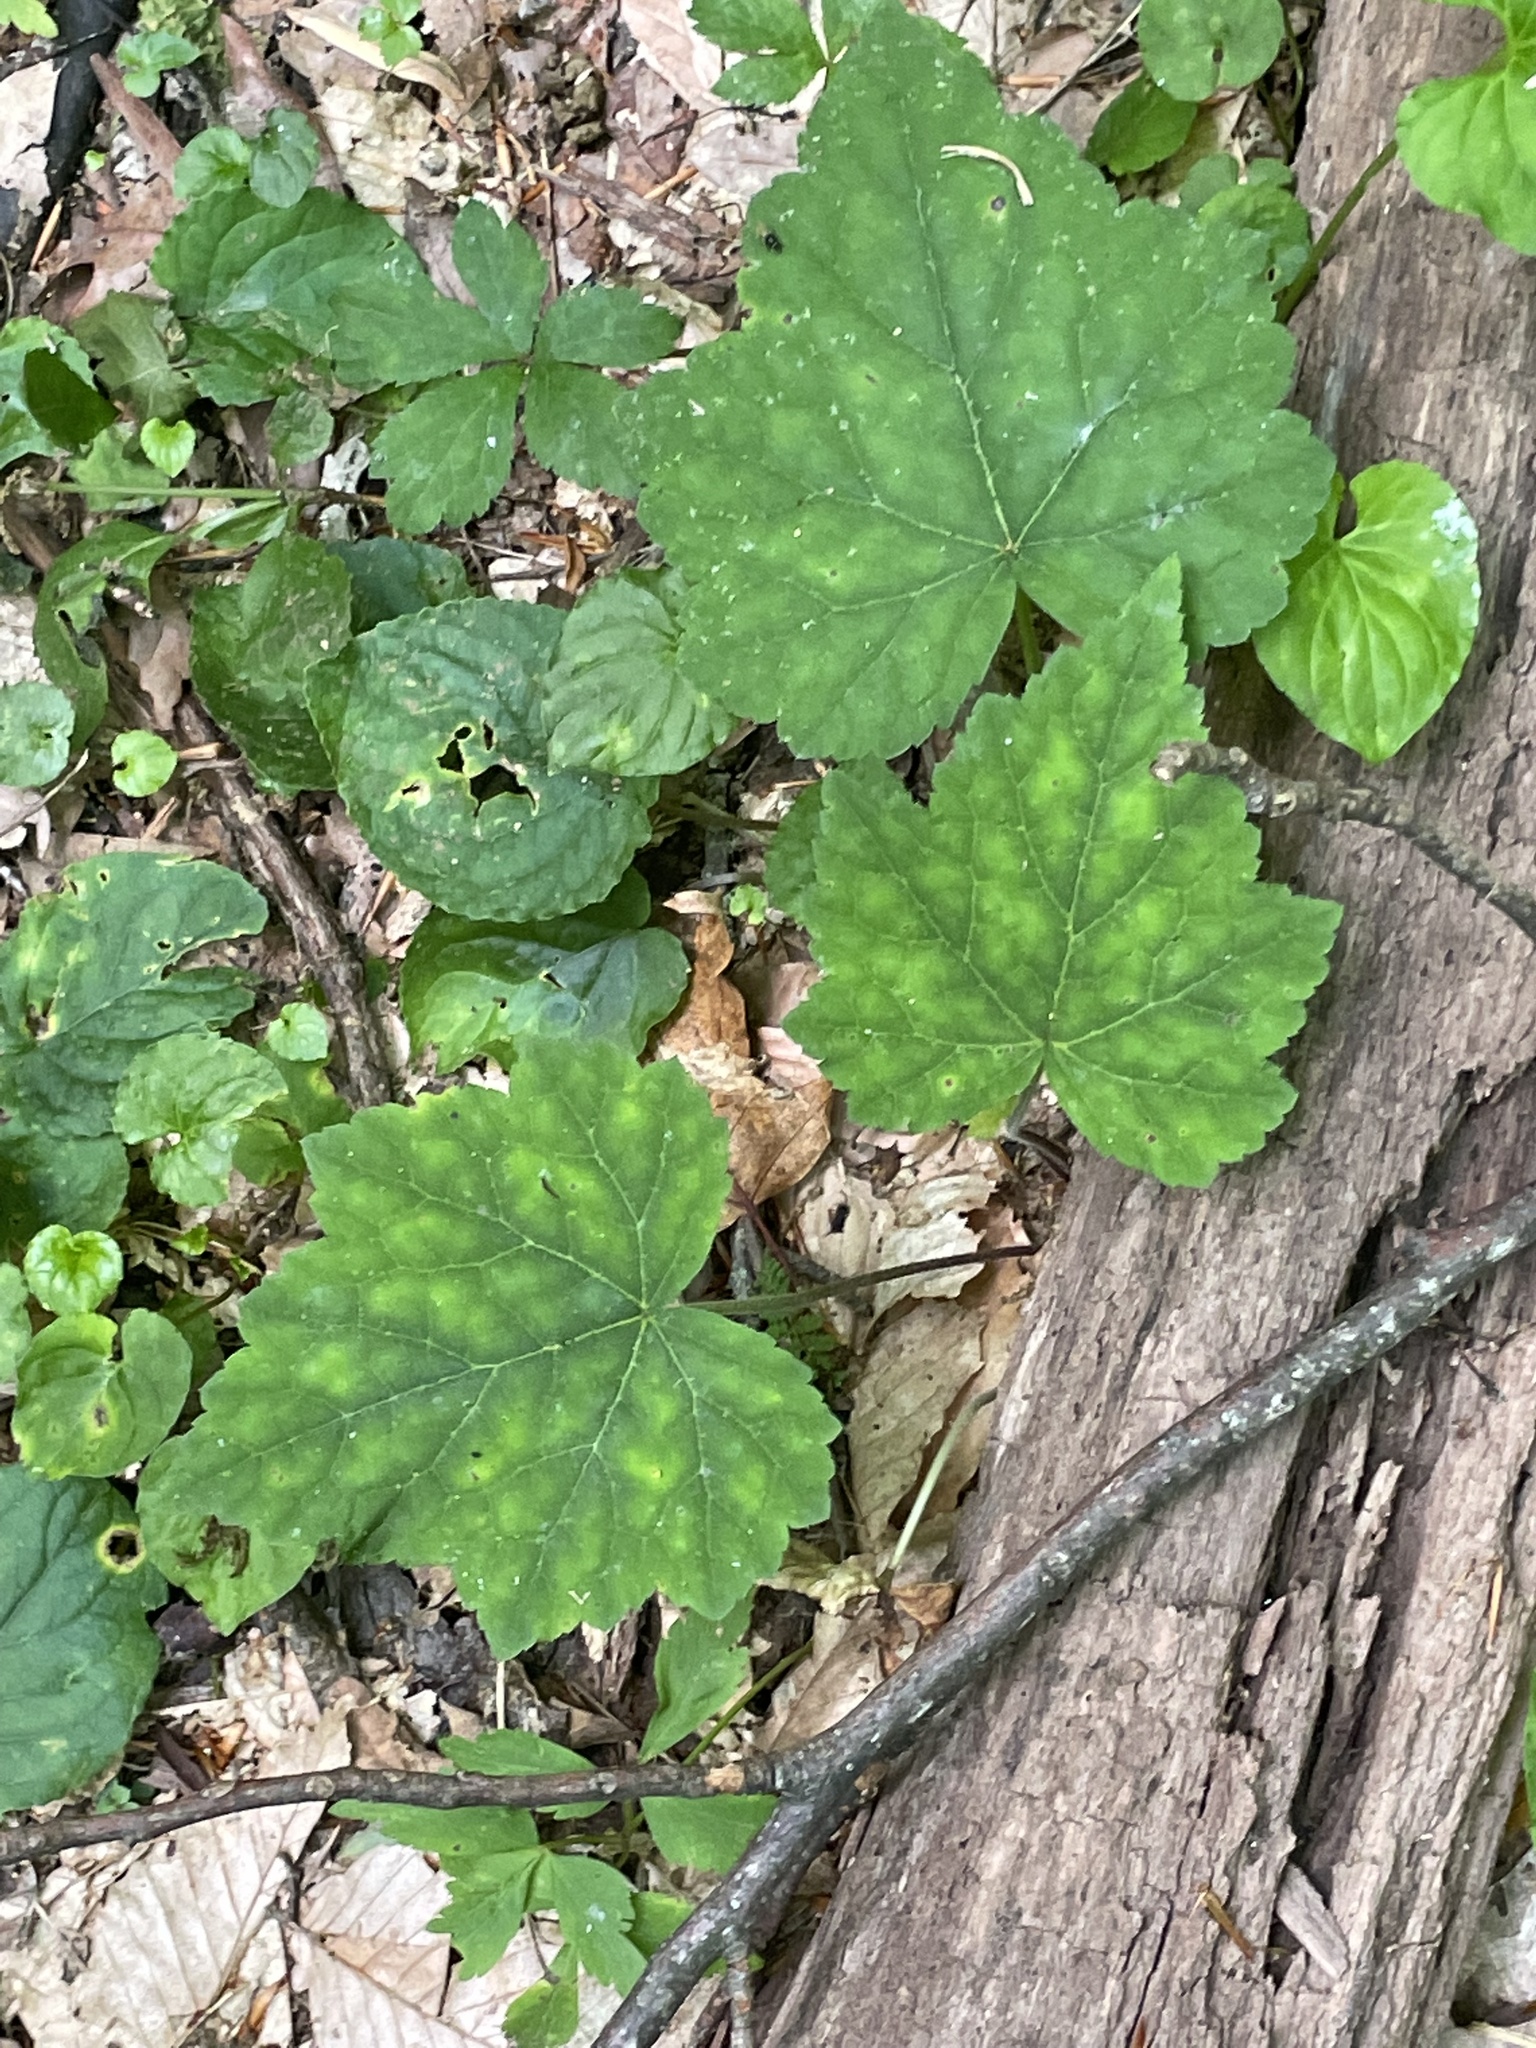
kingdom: Plantae
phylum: Tracheophyta
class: Magnoliopsida
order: Saxifragales
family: Saxifragaceae
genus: Tiarella
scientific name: Tiarella nautila
